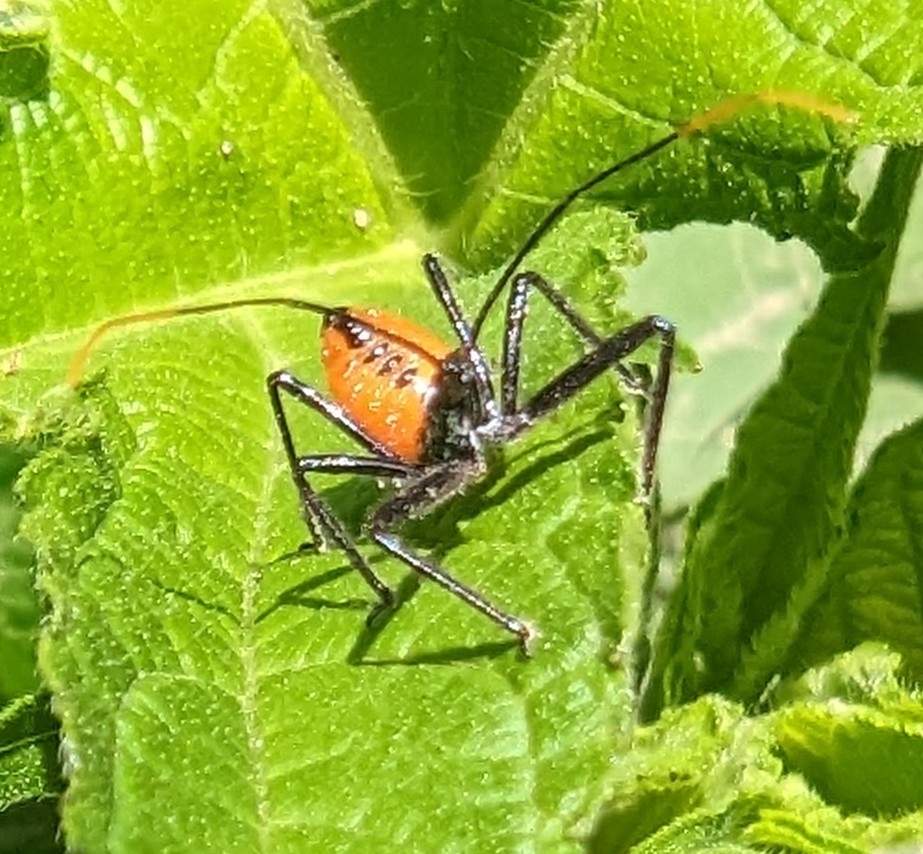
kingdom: Animalia
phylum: Arthropoda
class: Insecta
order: Hemiptera
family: Reduviidae
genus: Arilus
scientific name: Arilus cristatus
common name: North american wheel bug
